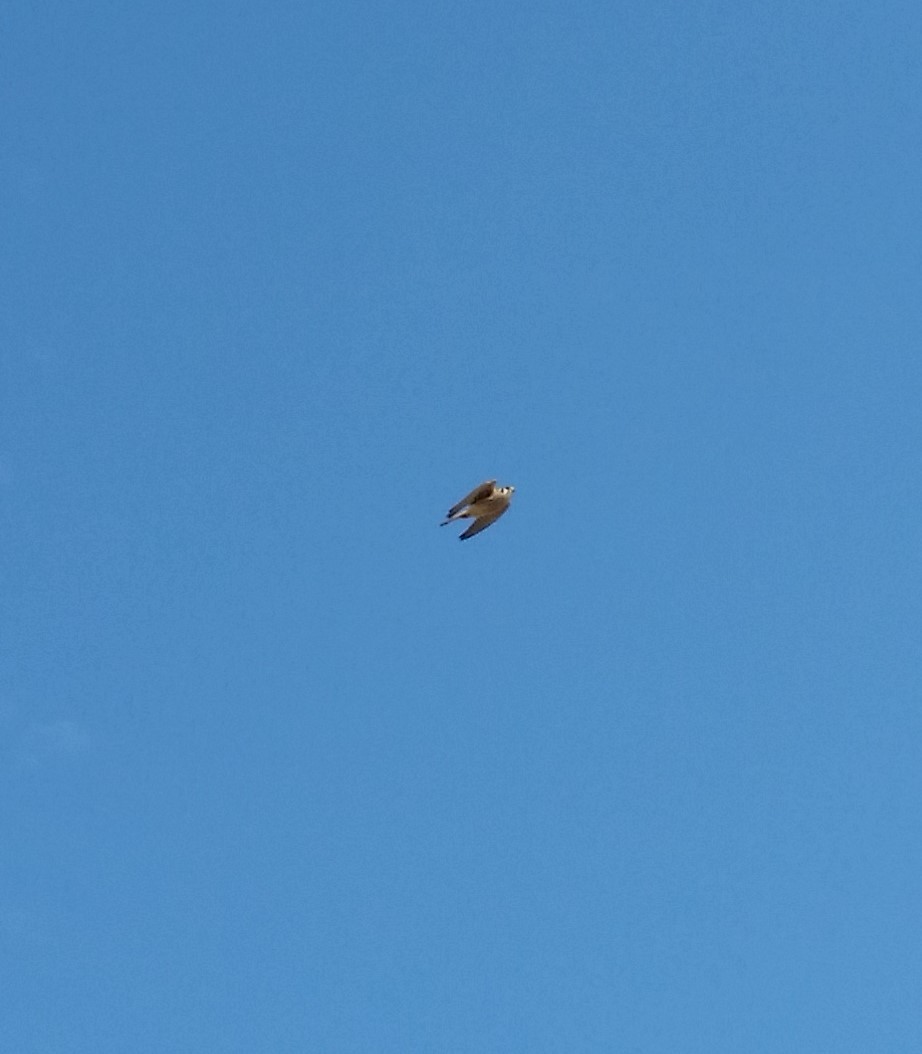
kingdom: Animalia
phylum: Chordata
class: Aves
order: Falconiformes
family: Falconidae
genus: Falco
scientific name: Falco sparverius
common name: American kestrel
